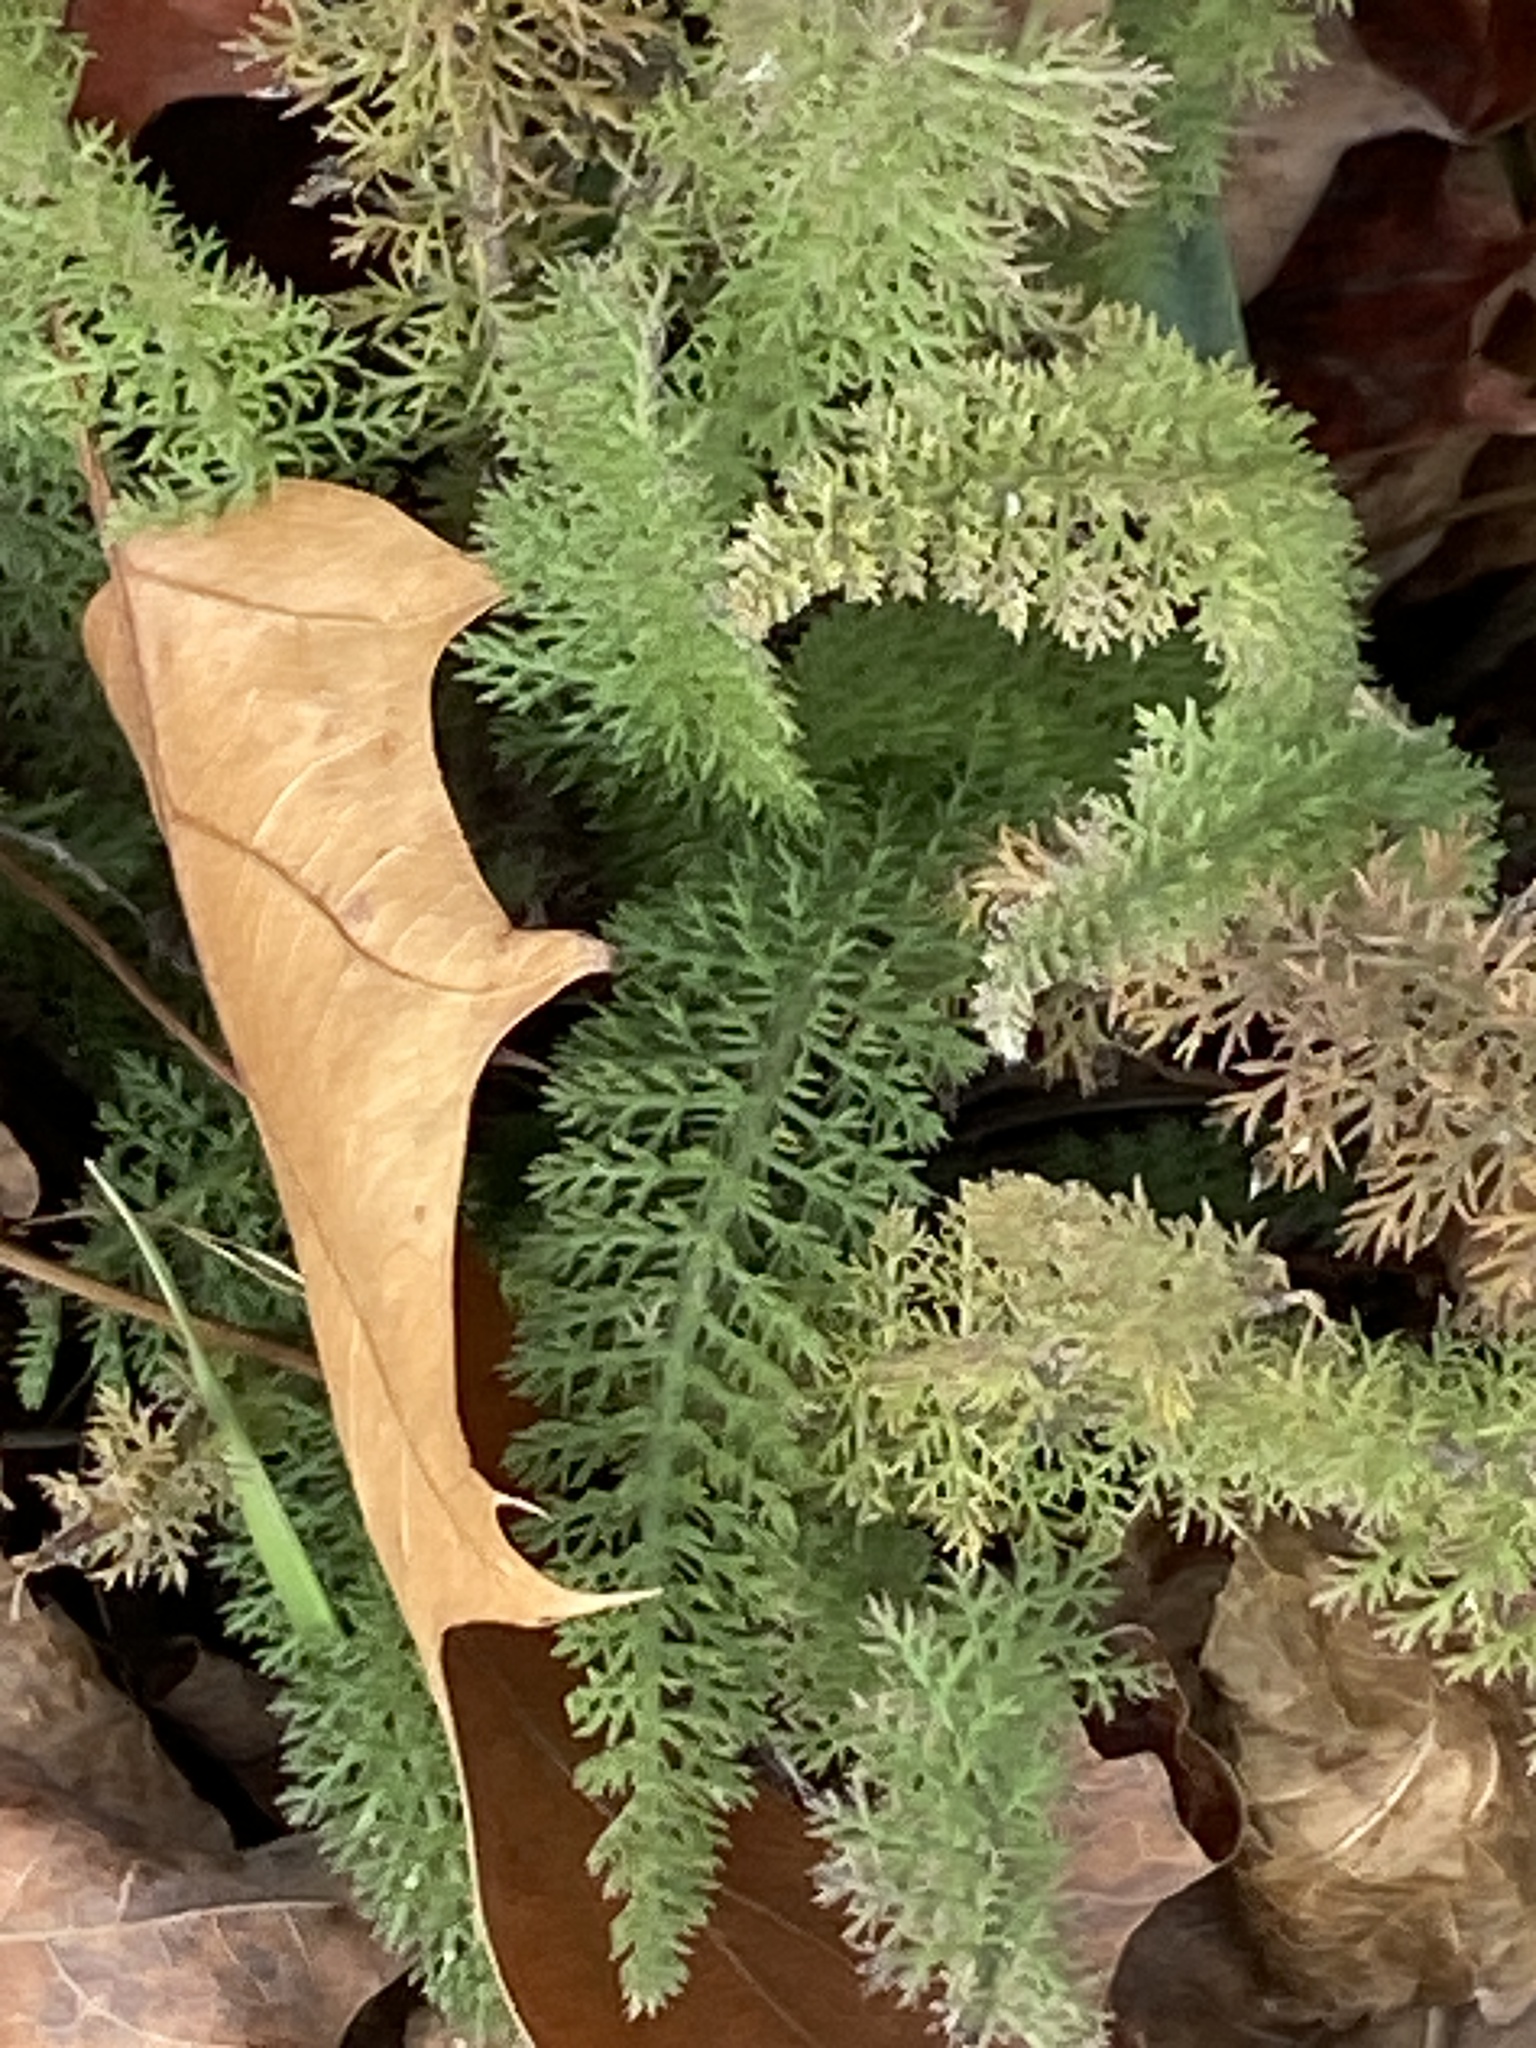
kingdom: Plantae
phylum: Tracheophyta
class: Magnoliopsida
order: Asterales
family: Asteraceae
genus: Achillea
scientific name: Achillea millefolium
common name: Yarrow
